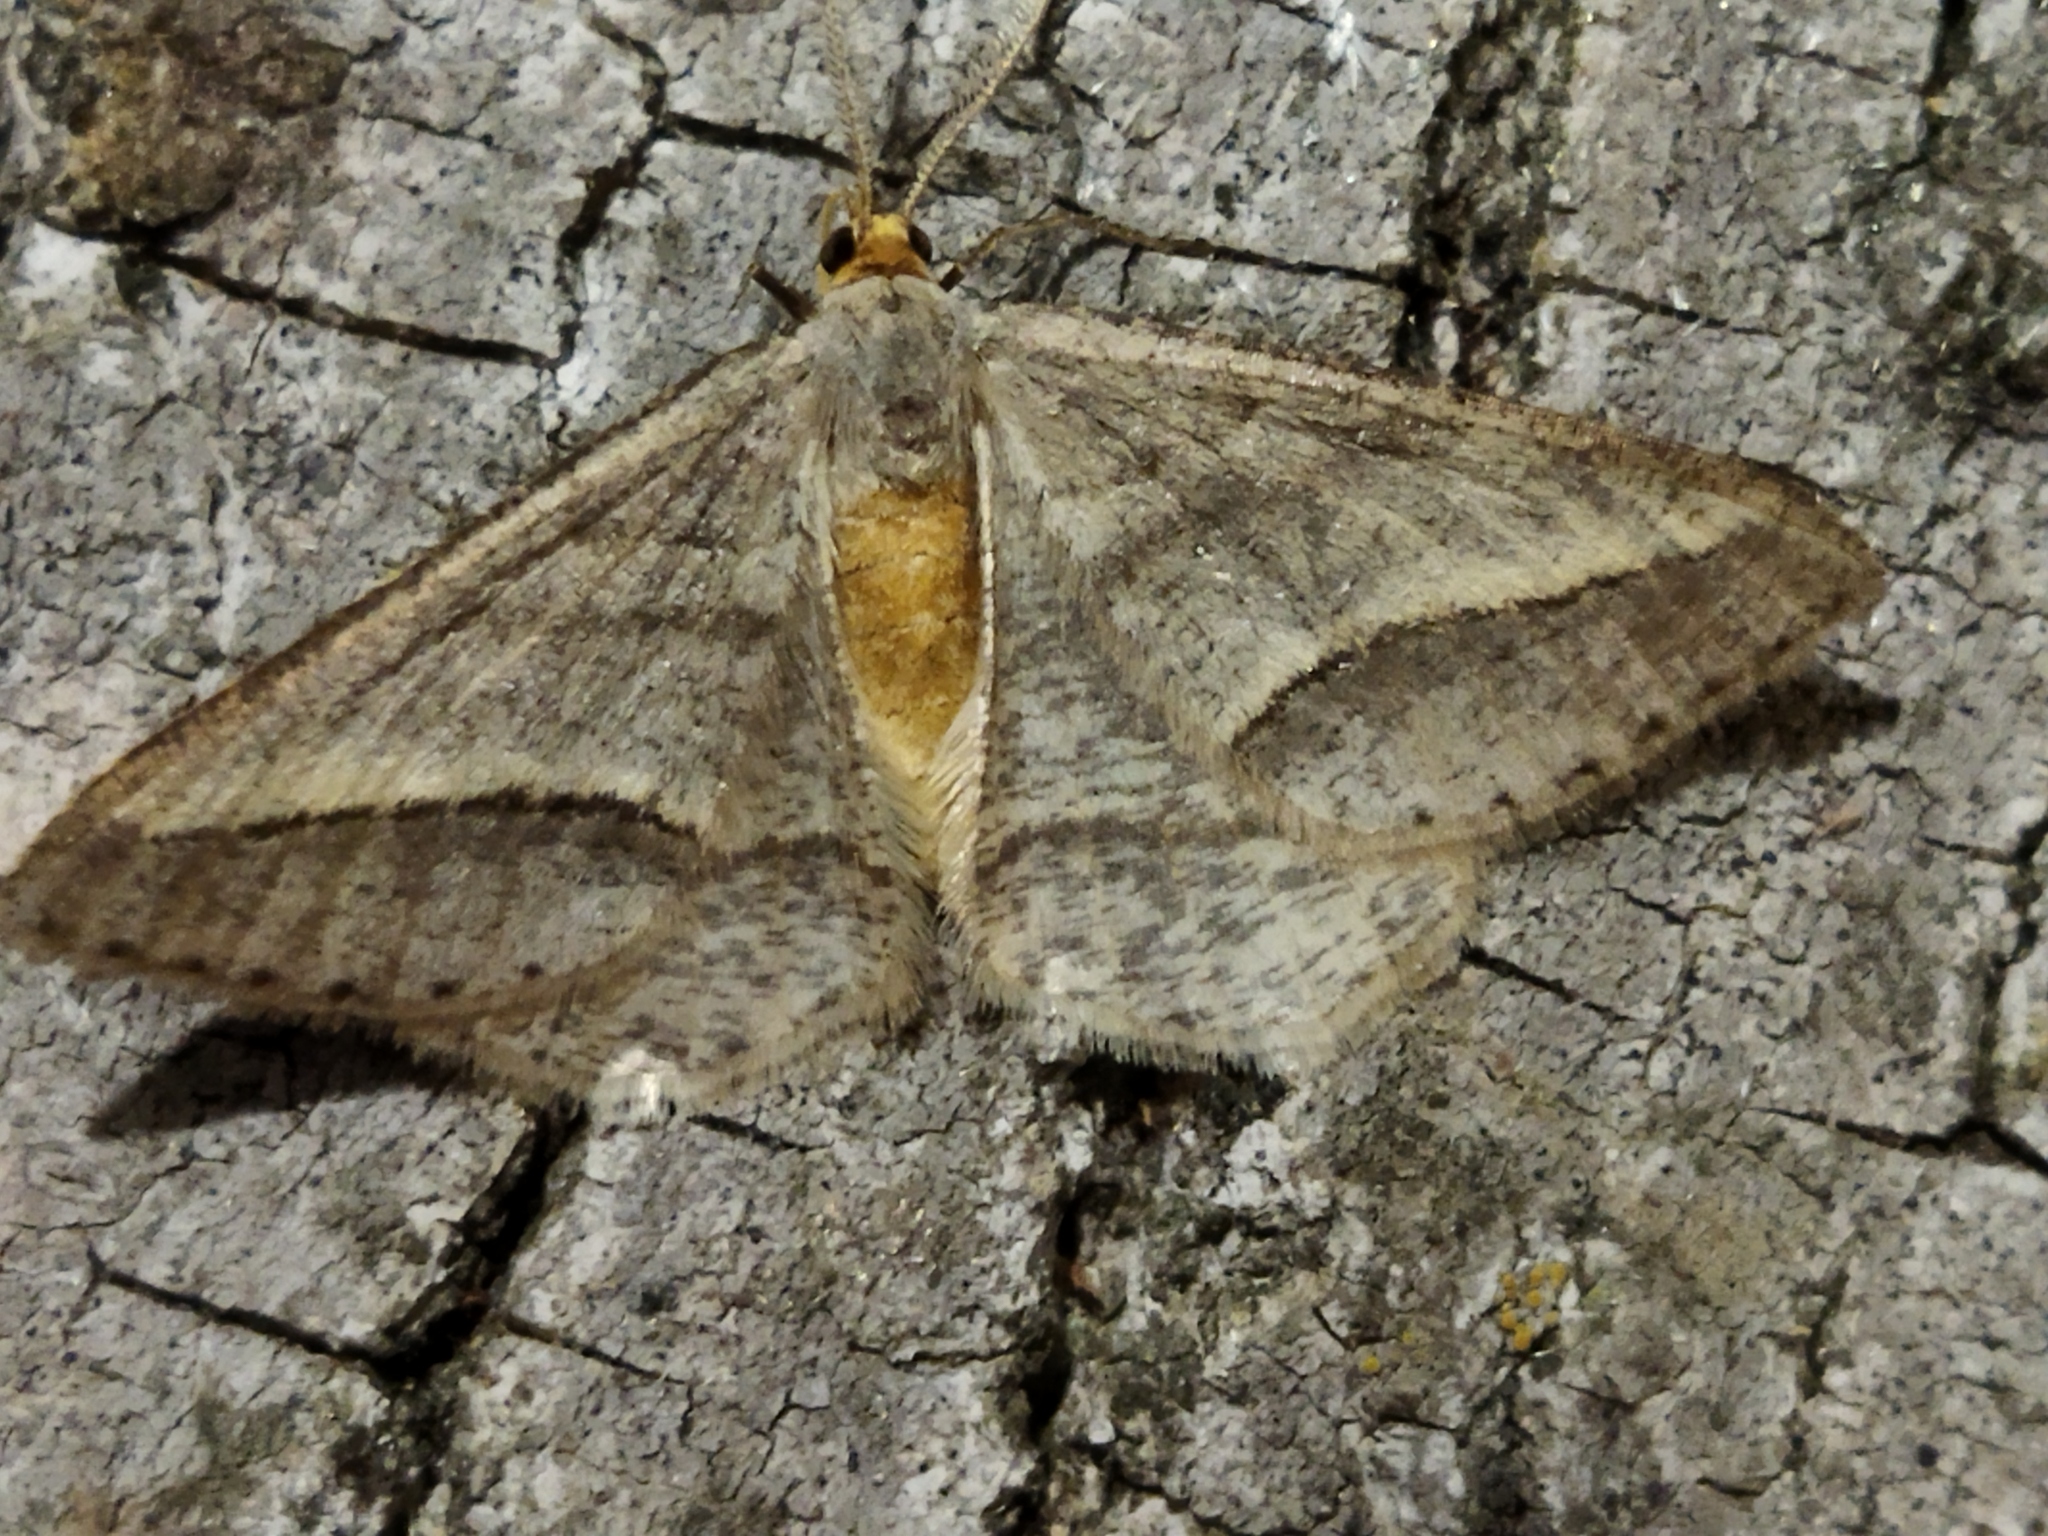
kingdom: Animalia
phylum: Arthropoda
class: Insecta
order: Lepidoptera
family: Geometridae
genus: Tephrina
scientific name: Tephrina arenacearia
